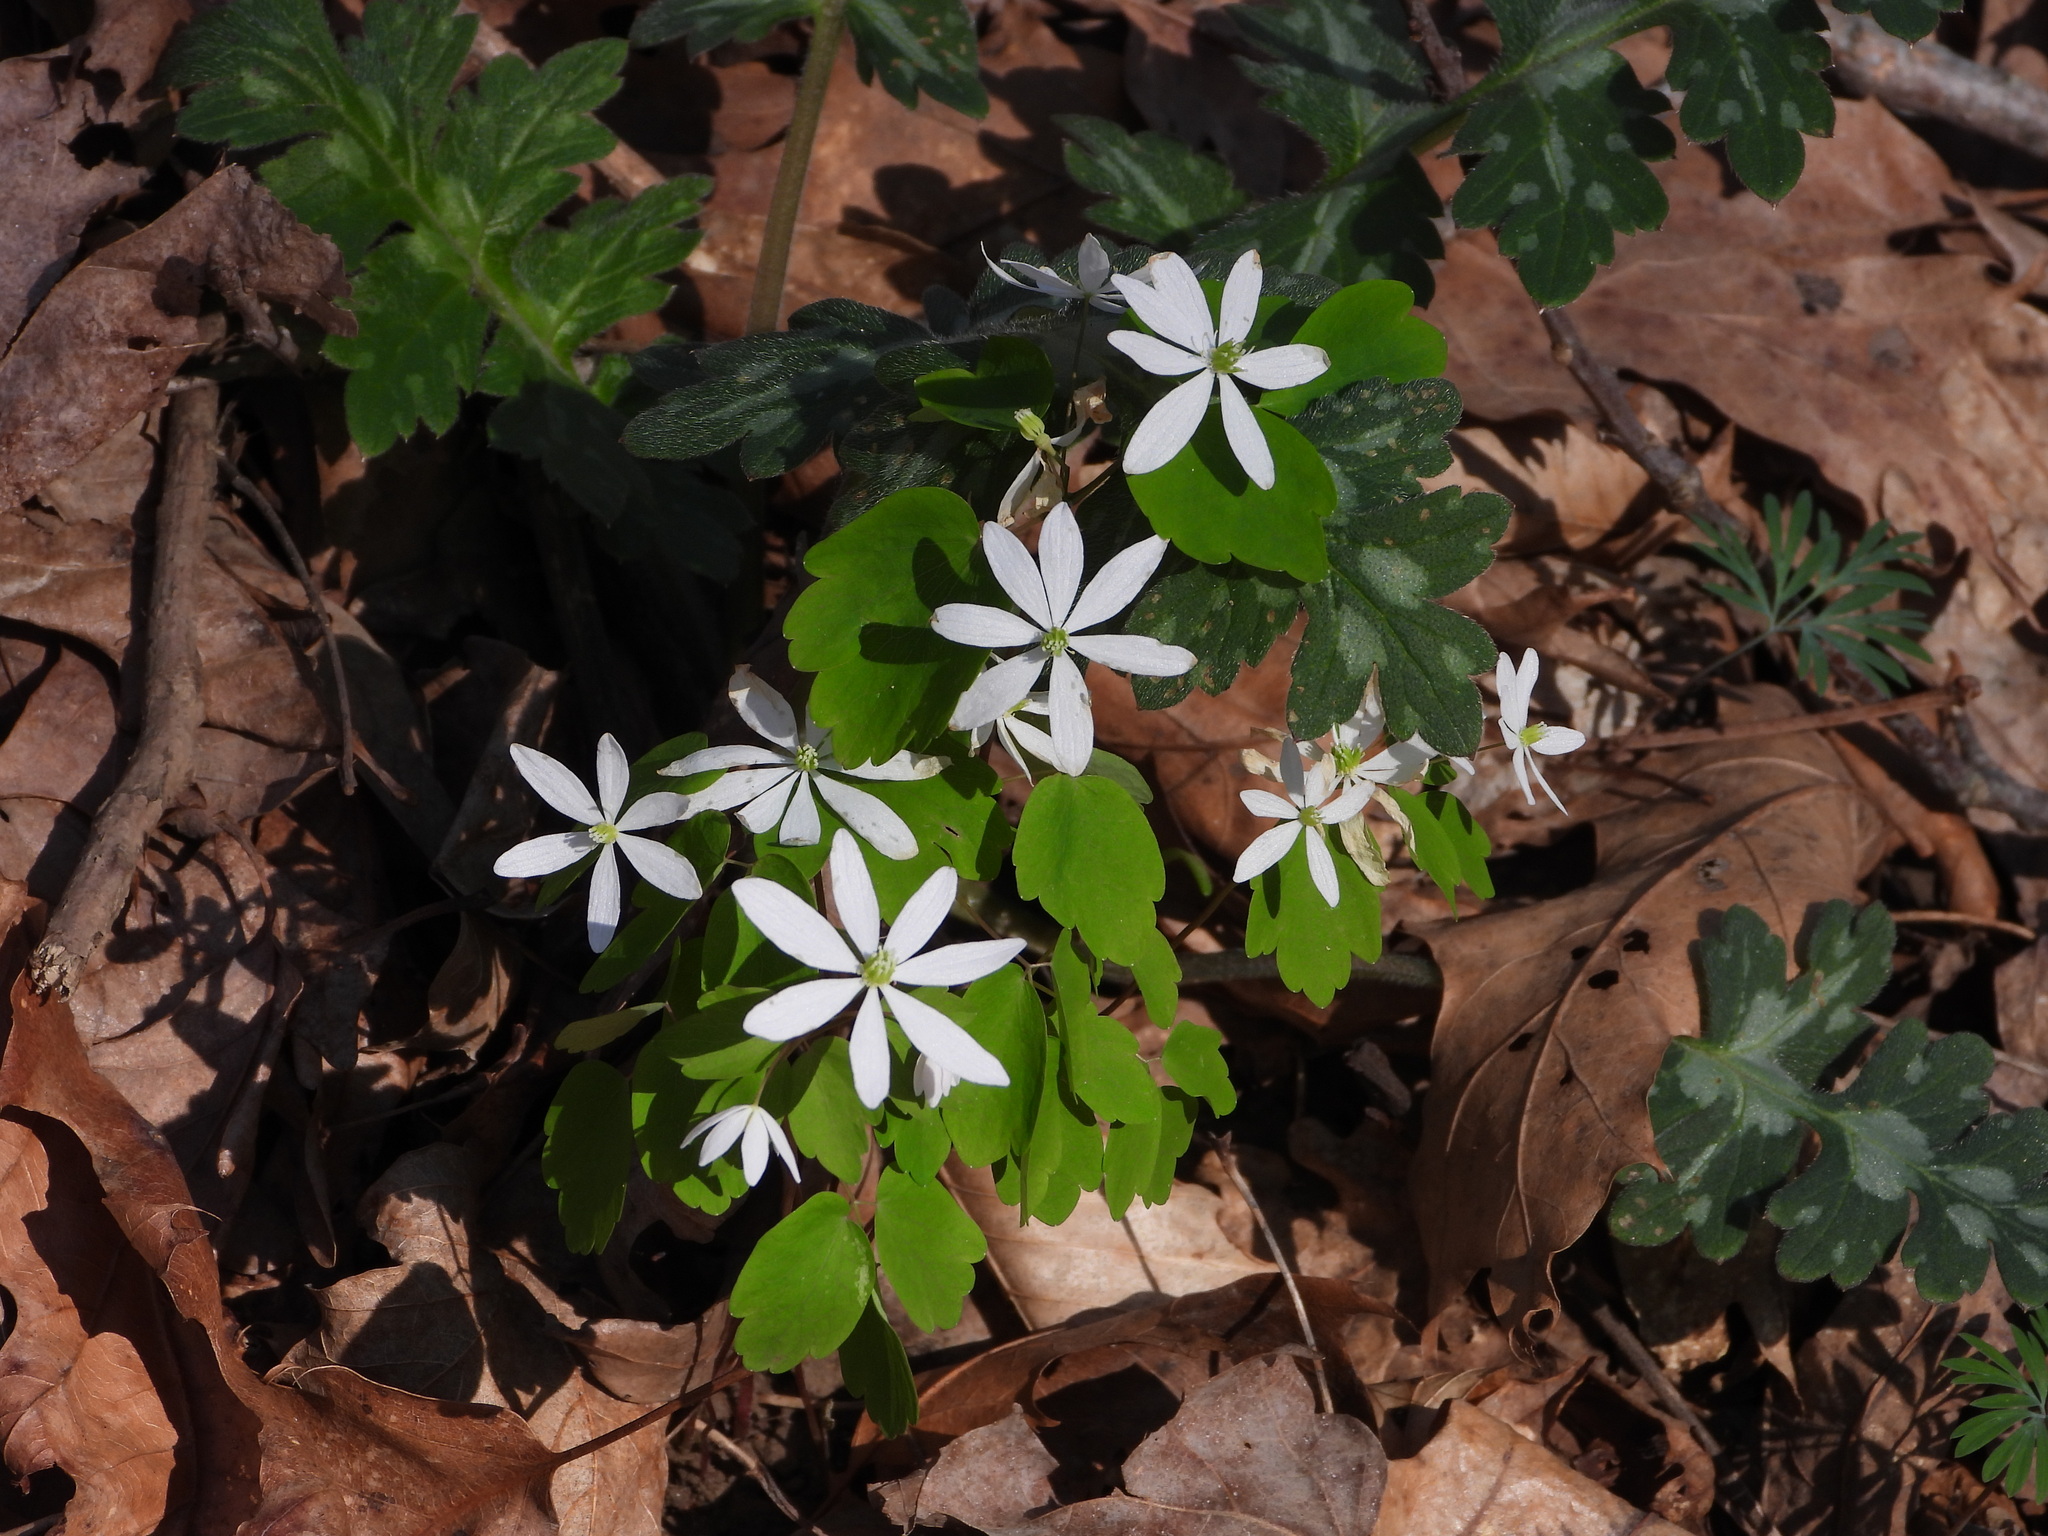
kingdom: Plantae
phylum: Tracheophyta
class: Magnoliopsida
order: Ranunculales
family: Ranunculaceae
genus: Thalictrum
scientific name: Thalictrum thalictroides
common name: Rue-anemone
